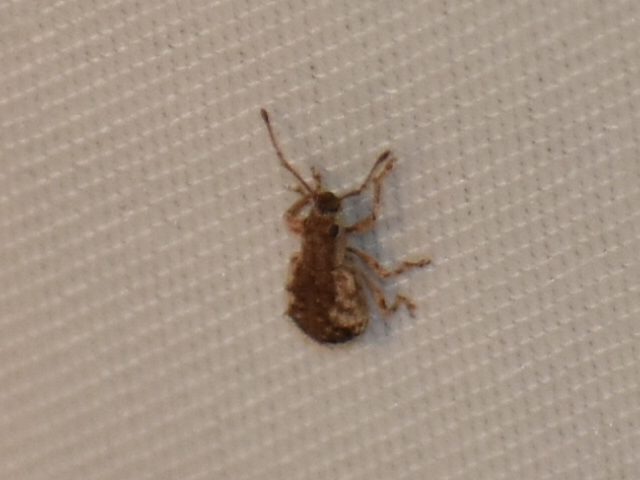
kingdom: Animalia
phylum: Arthropoda
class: Insecta
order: Coleoptera
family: Curculionidae
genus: Pseudoedophrys
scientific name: Pseudoedophrys hilleri
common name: Weevil
